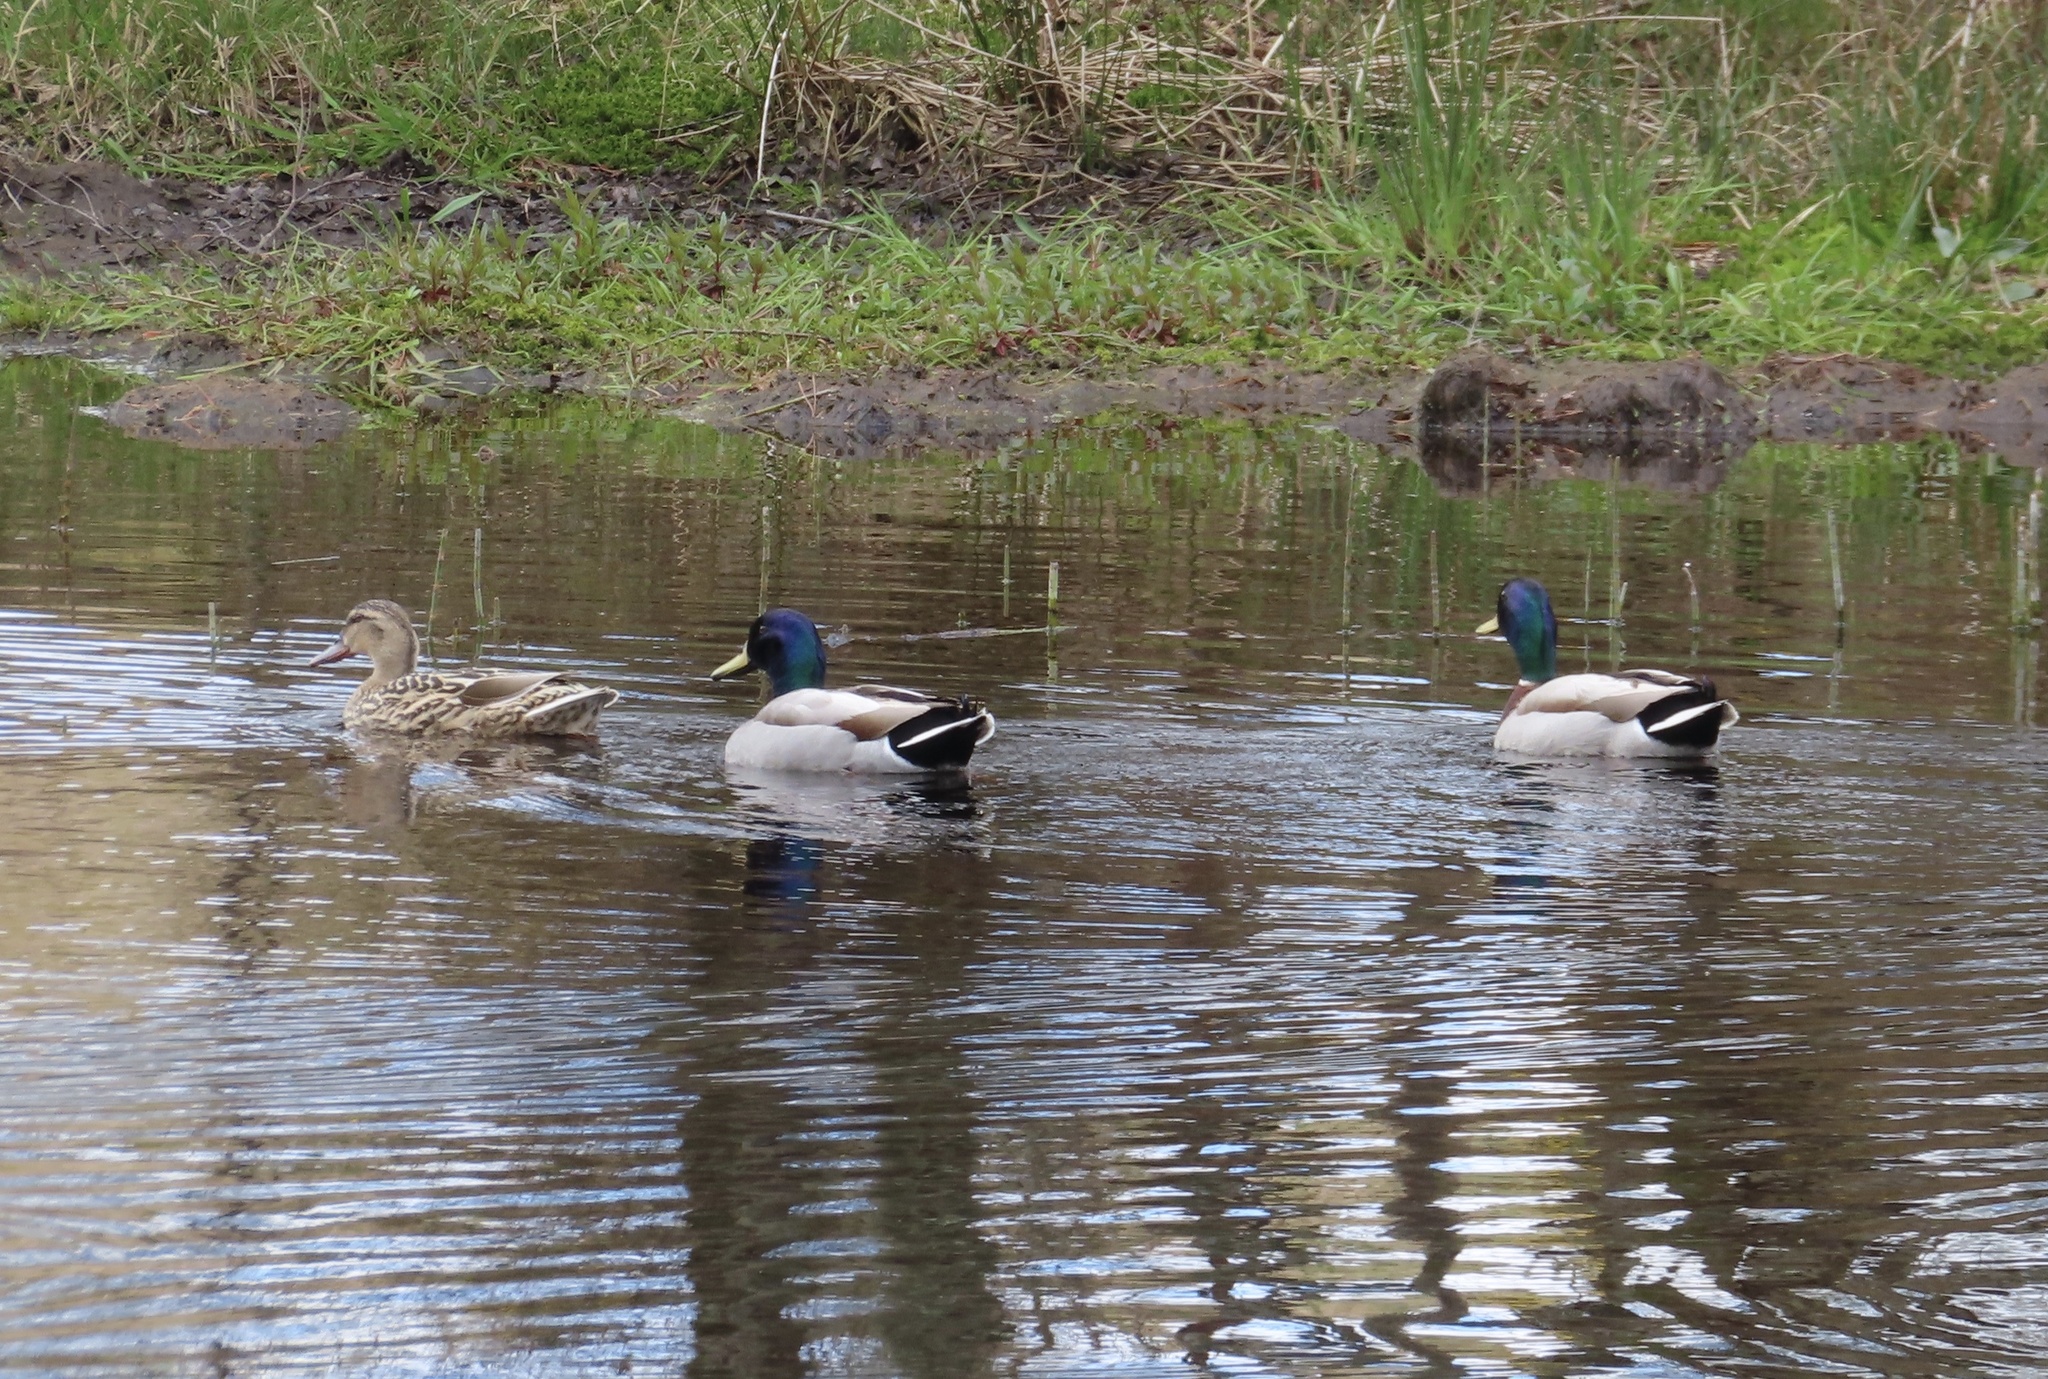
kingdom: Animalia
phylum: Chordata
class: Aves
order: Anseriformes
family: Anatidae
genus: Anas
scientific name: Anas platyrhynchos
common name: Mallard
